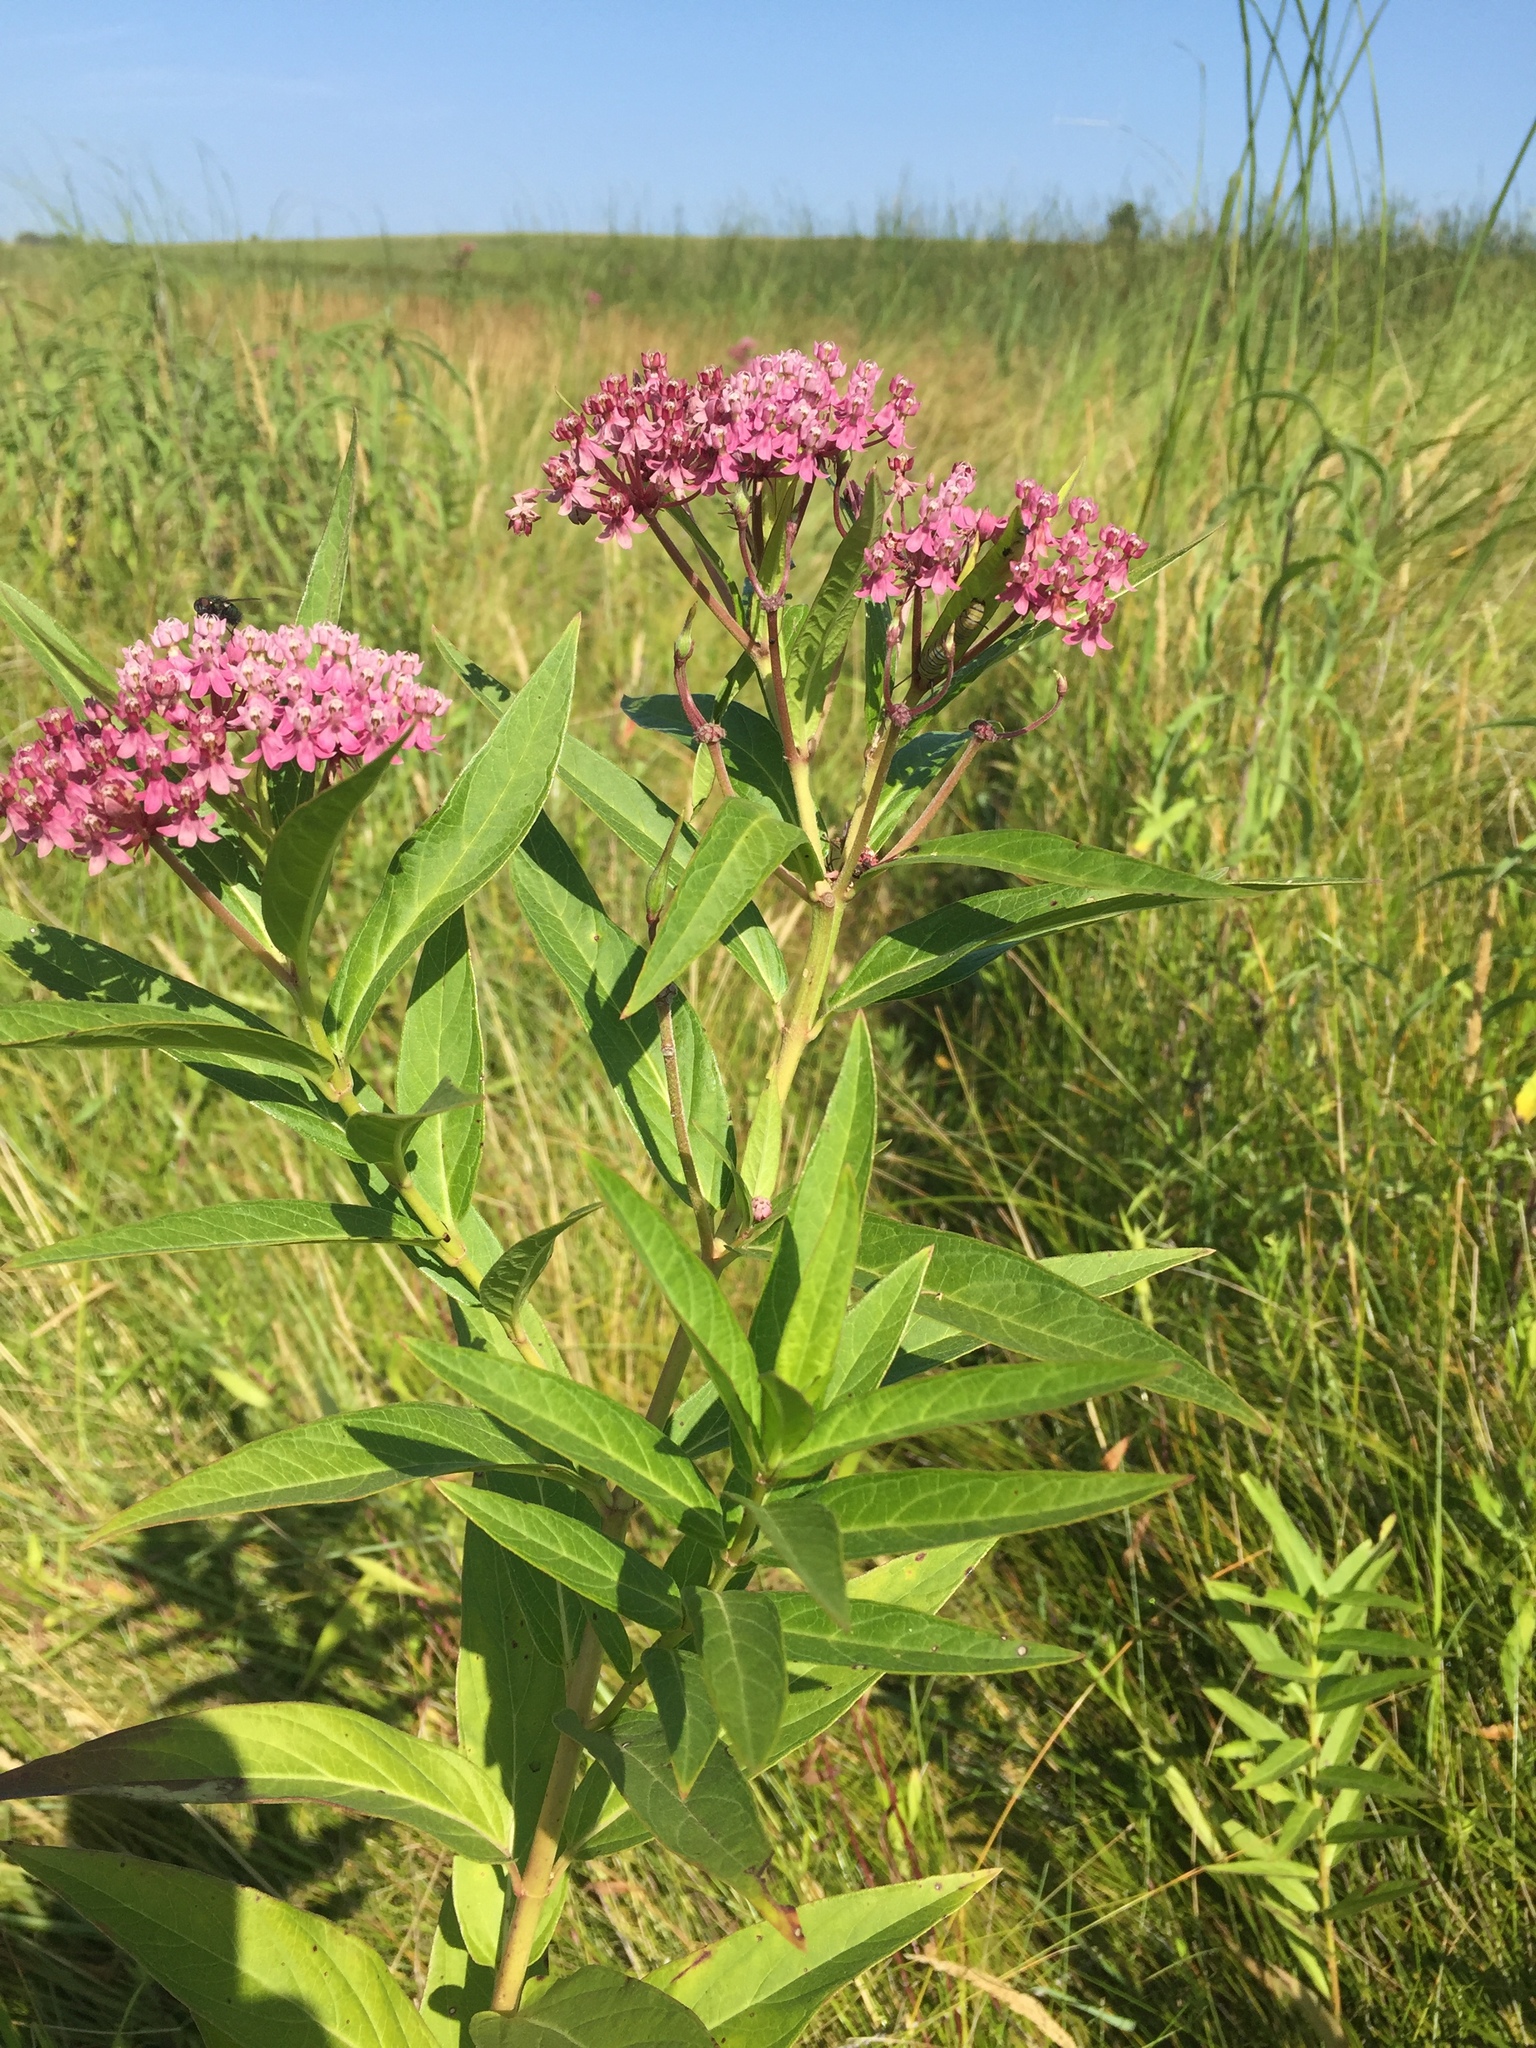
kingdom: Plantae
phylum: Tracheophyta
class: Magnoliopsida
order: Gentianales
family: Apocynaceae
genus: Asclepias
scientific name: Asclepias incarnata
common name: Swamp milkweed
